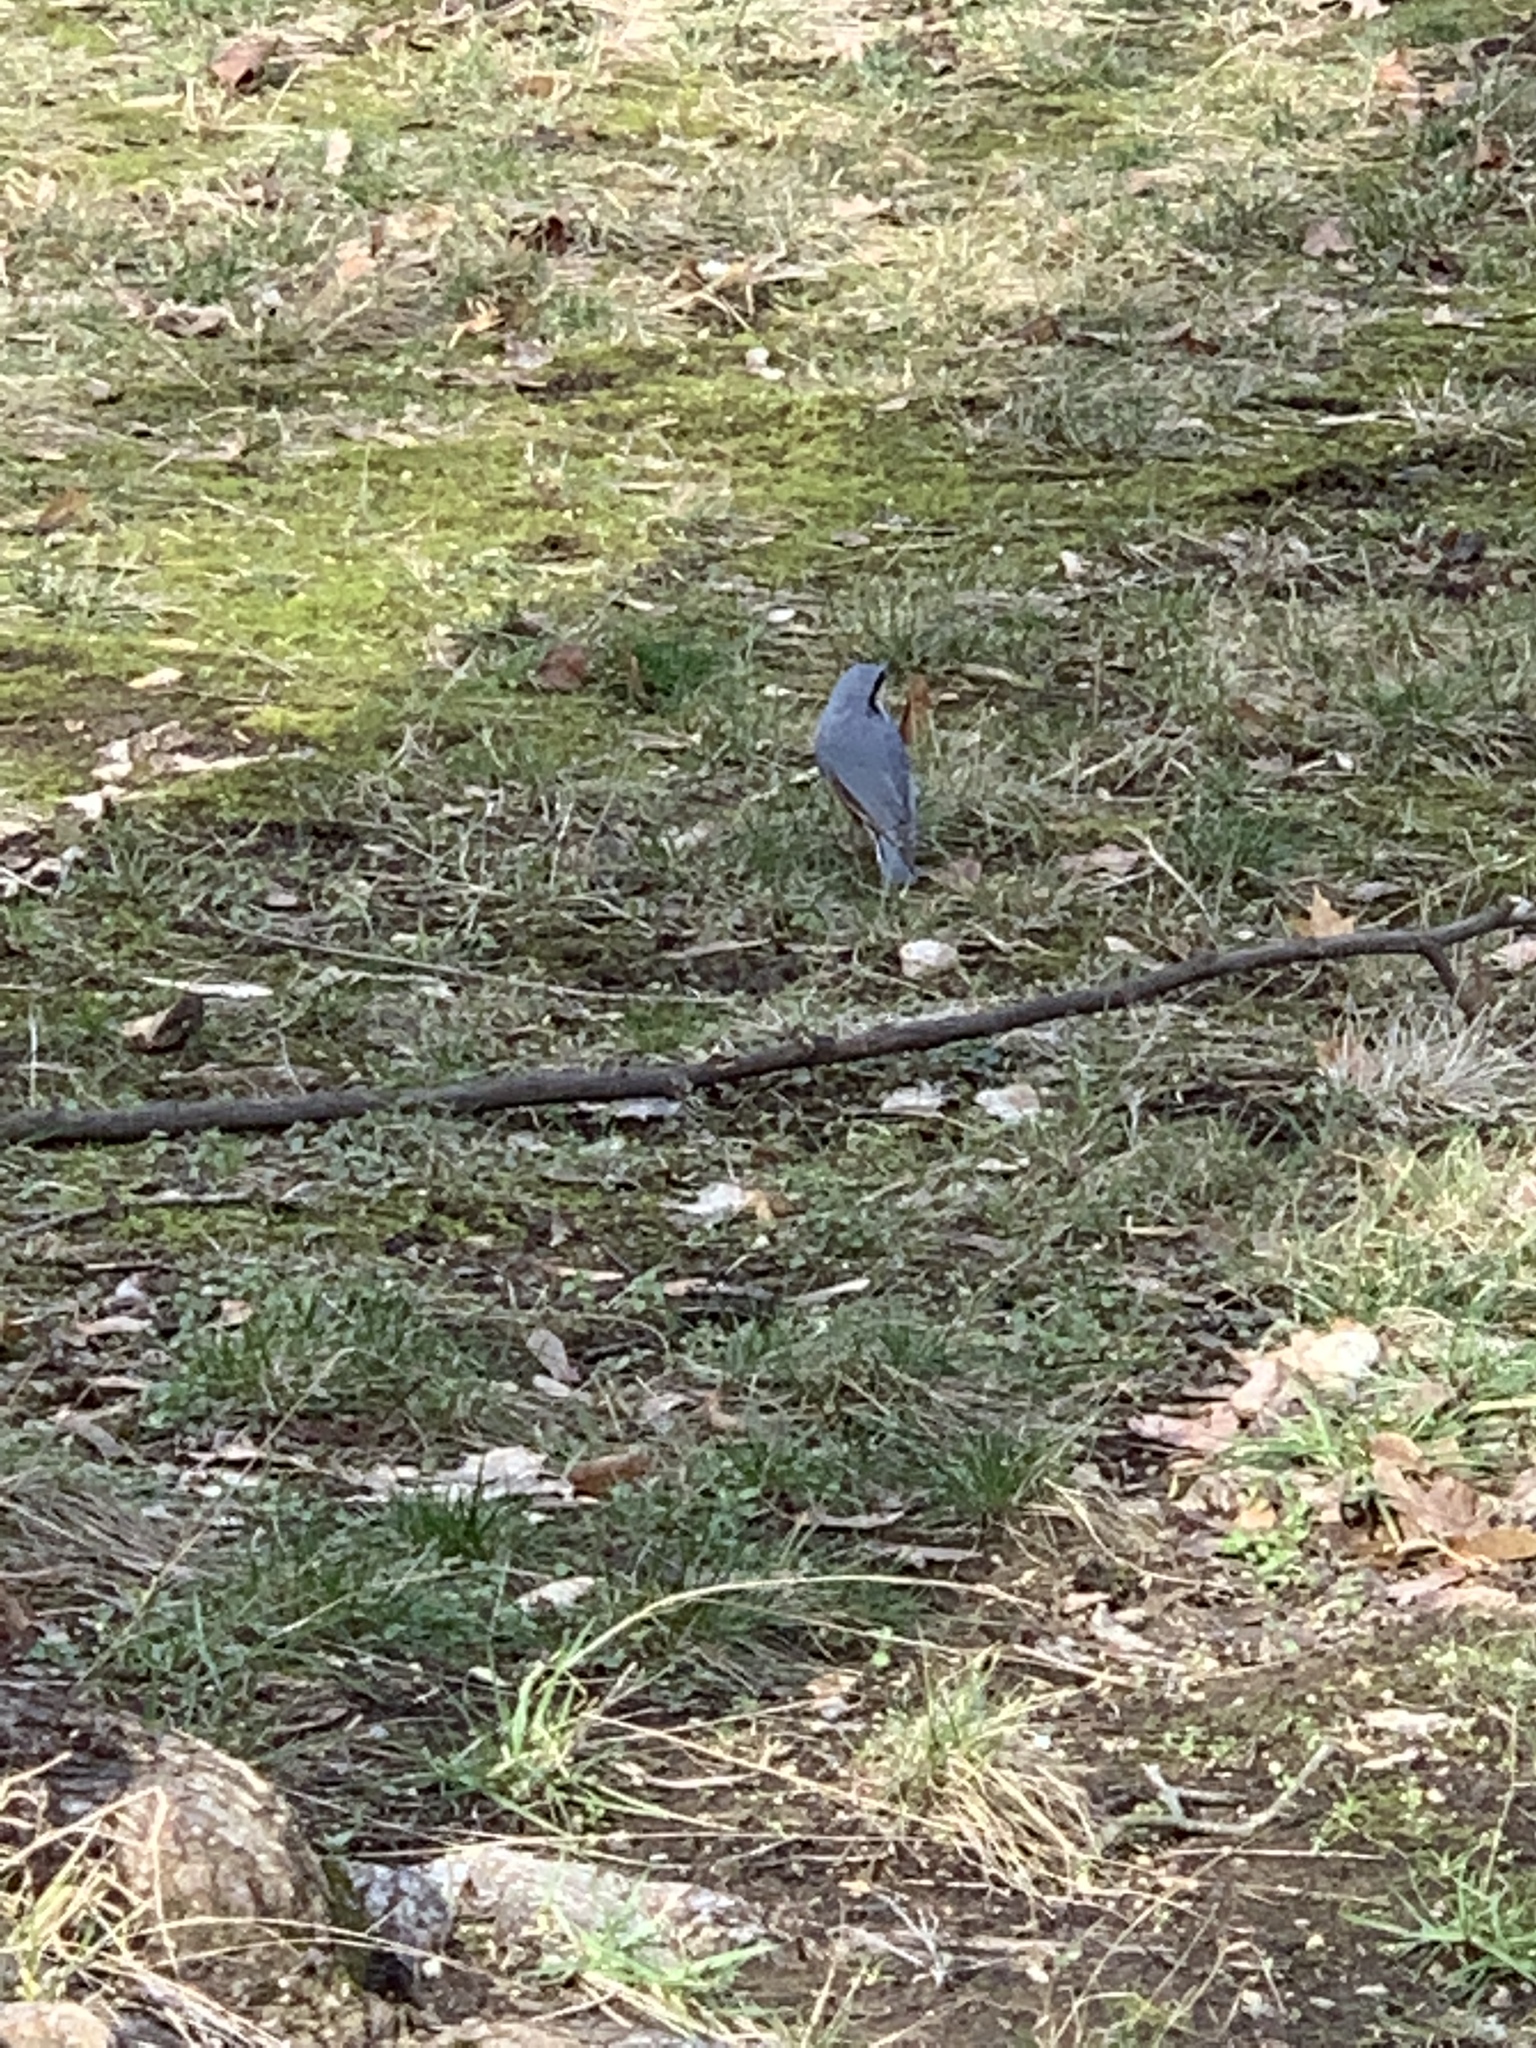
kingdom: Animalia
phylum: Chordata
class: Aves
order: Passeriformes
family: Sittidae
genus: Sitta
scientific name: Sitta europaea
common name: Eurasian nuthatch
